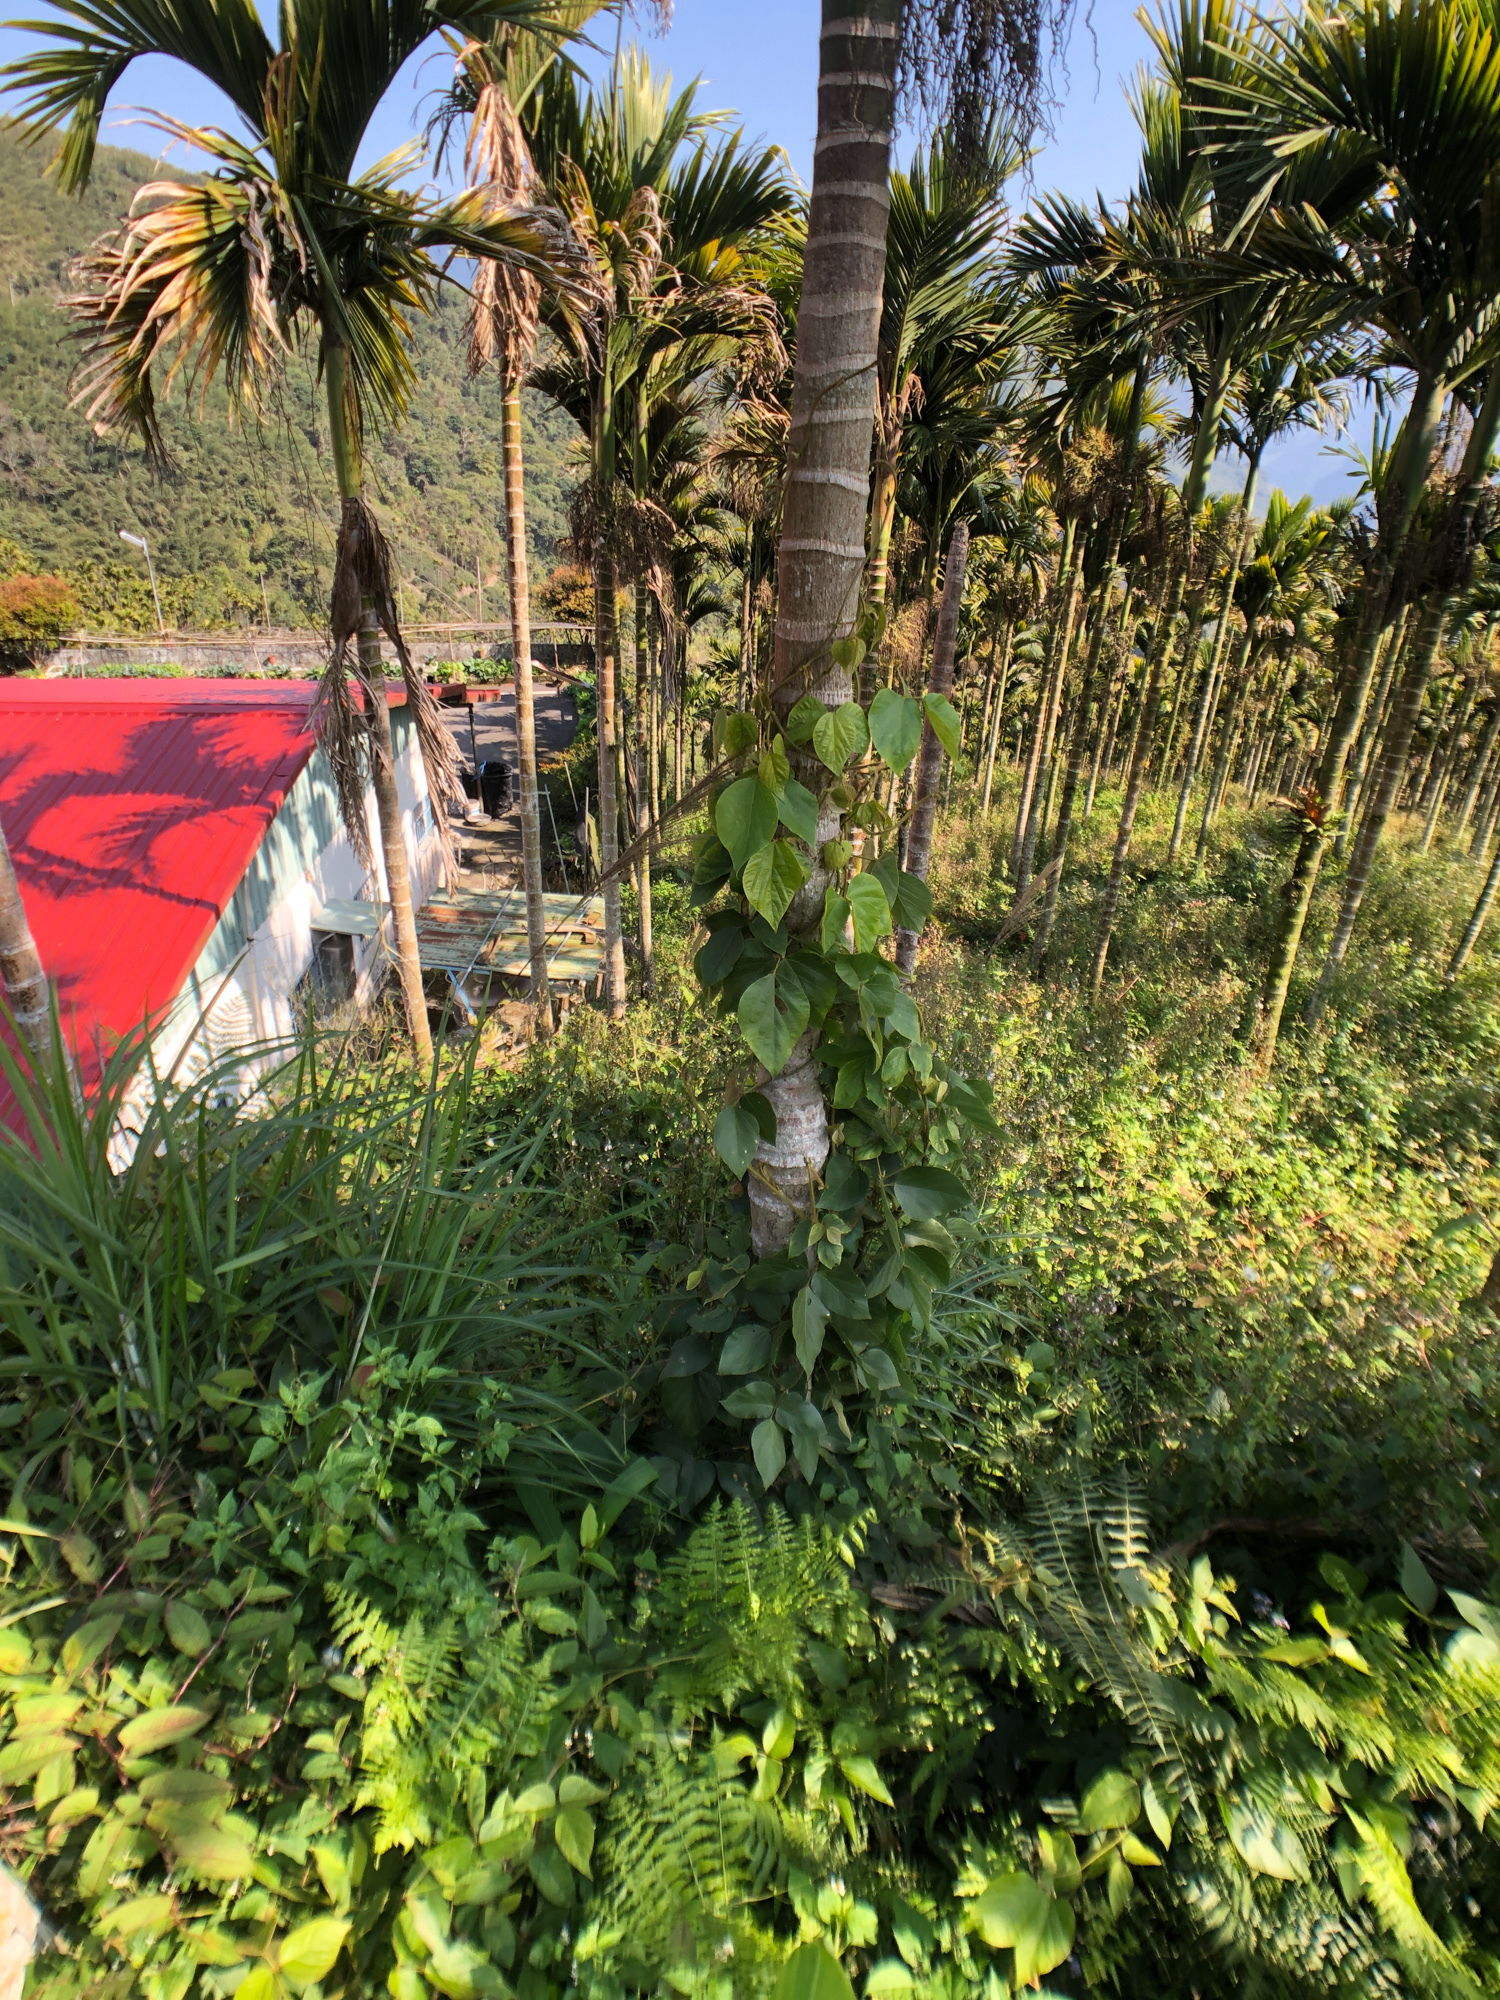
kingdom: Plantae
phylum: Tracheophyta
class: Magnoliopsida
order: Fabales
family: Fabaceae
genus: Pueraria
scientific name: Pueraria montana
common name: Kudzu
